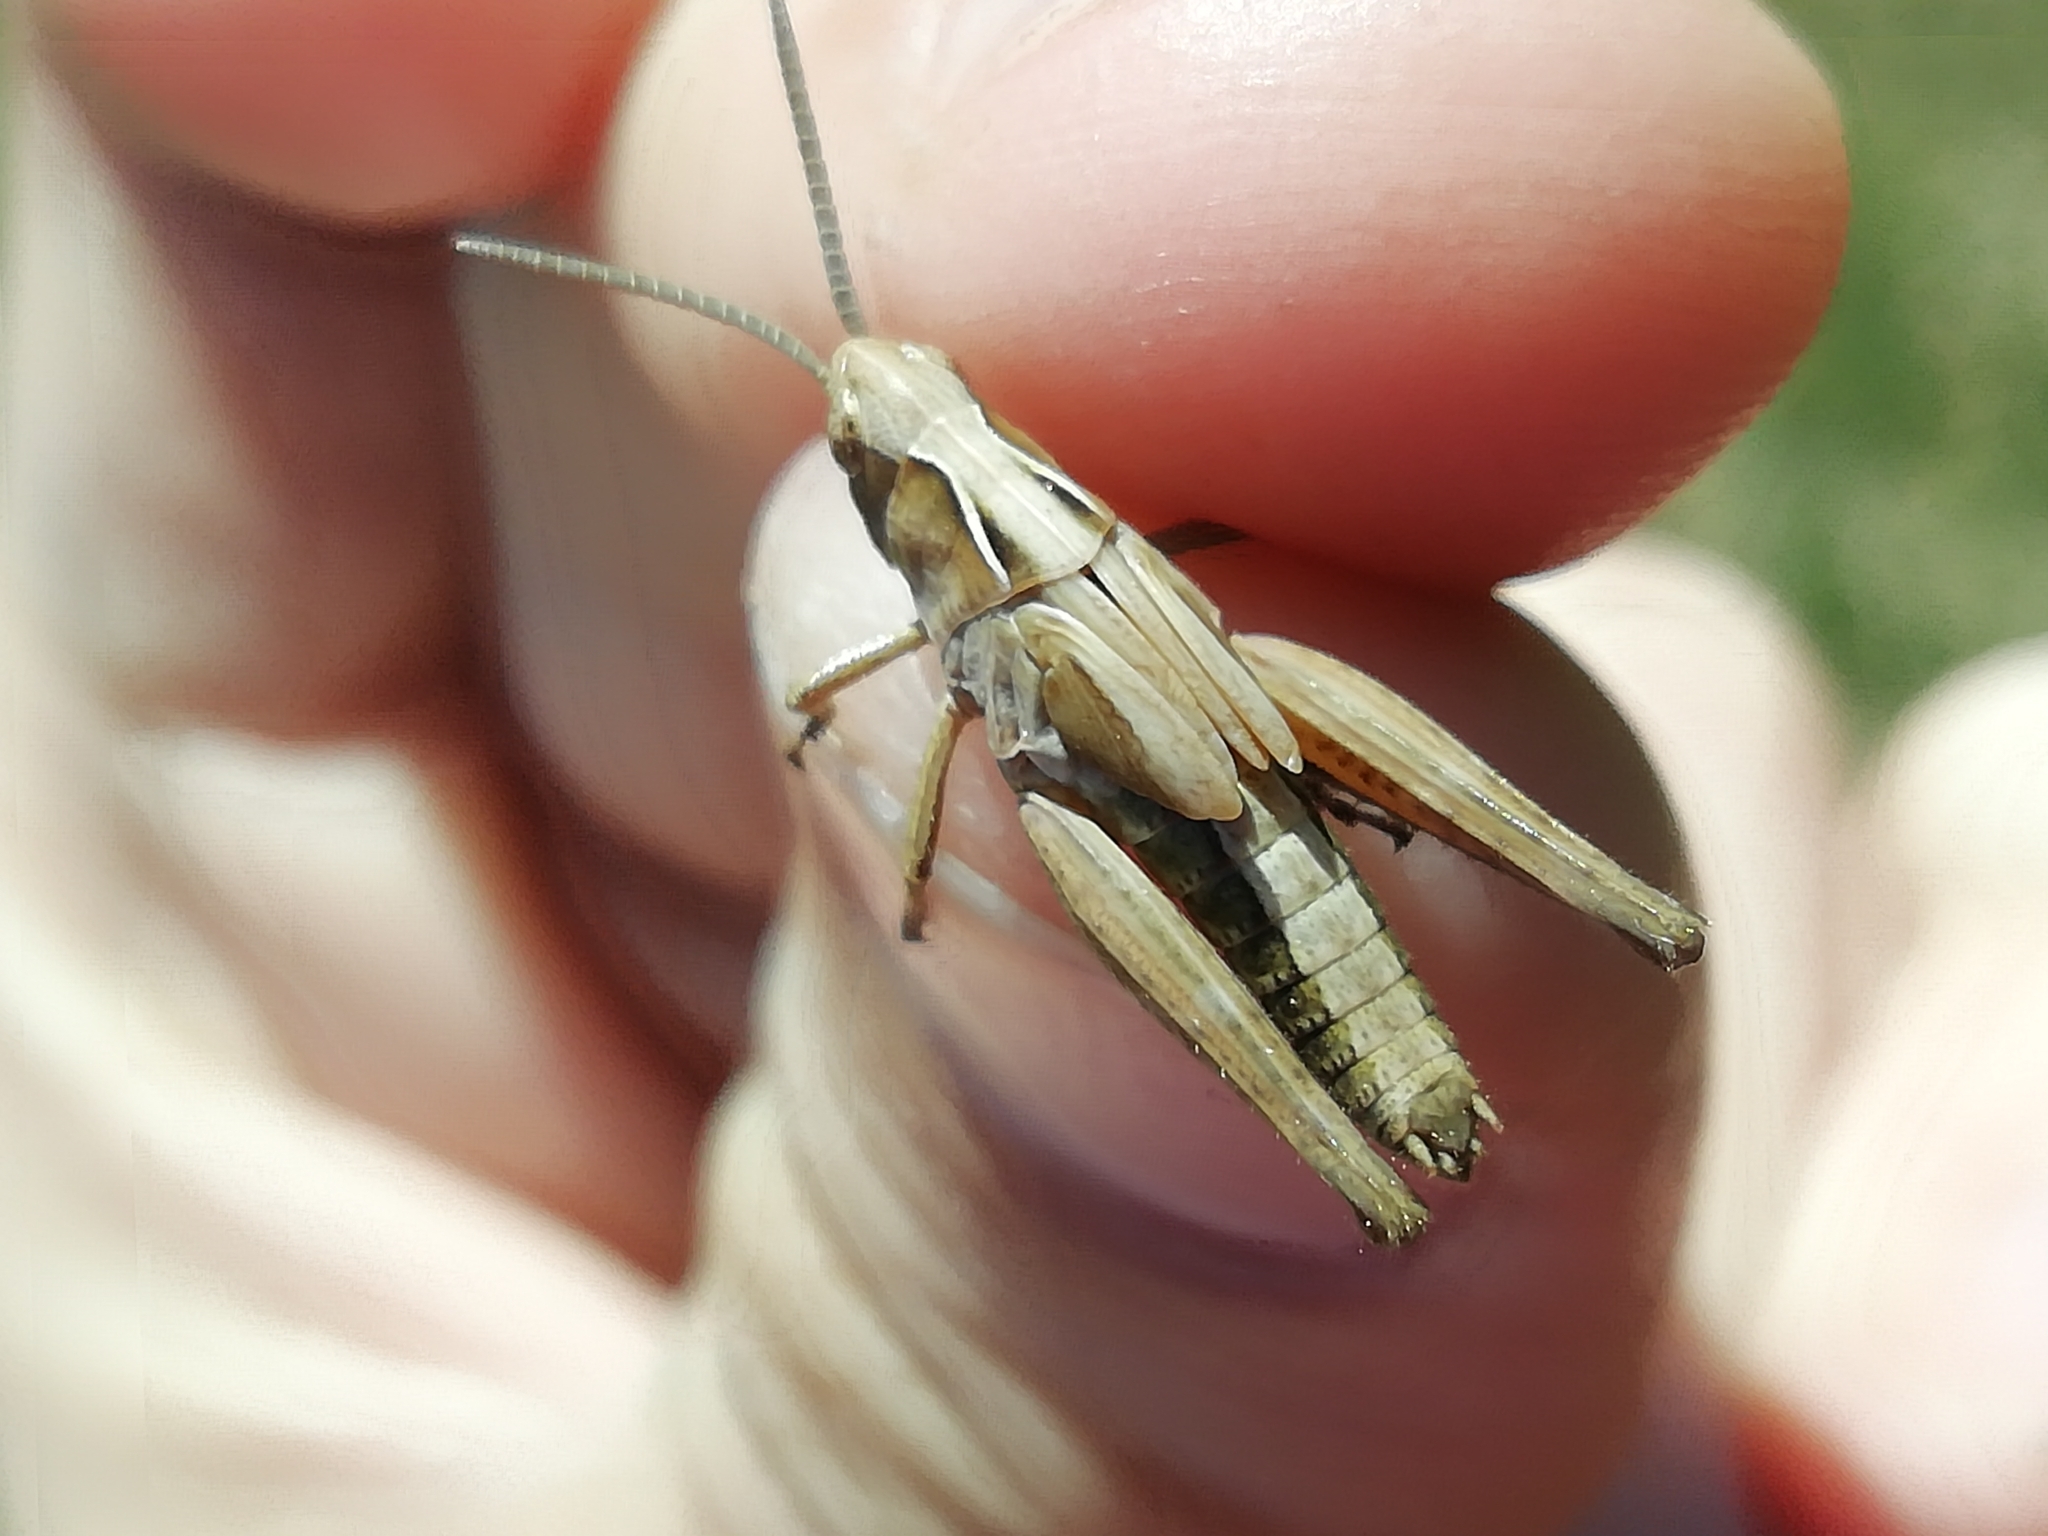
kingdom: Animalia
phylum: Arthropoda
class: Insecta
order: Orthoptera
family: Acrididae
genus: Omocestus
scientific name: Omocestus viridulus
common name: Common green grasshopper
